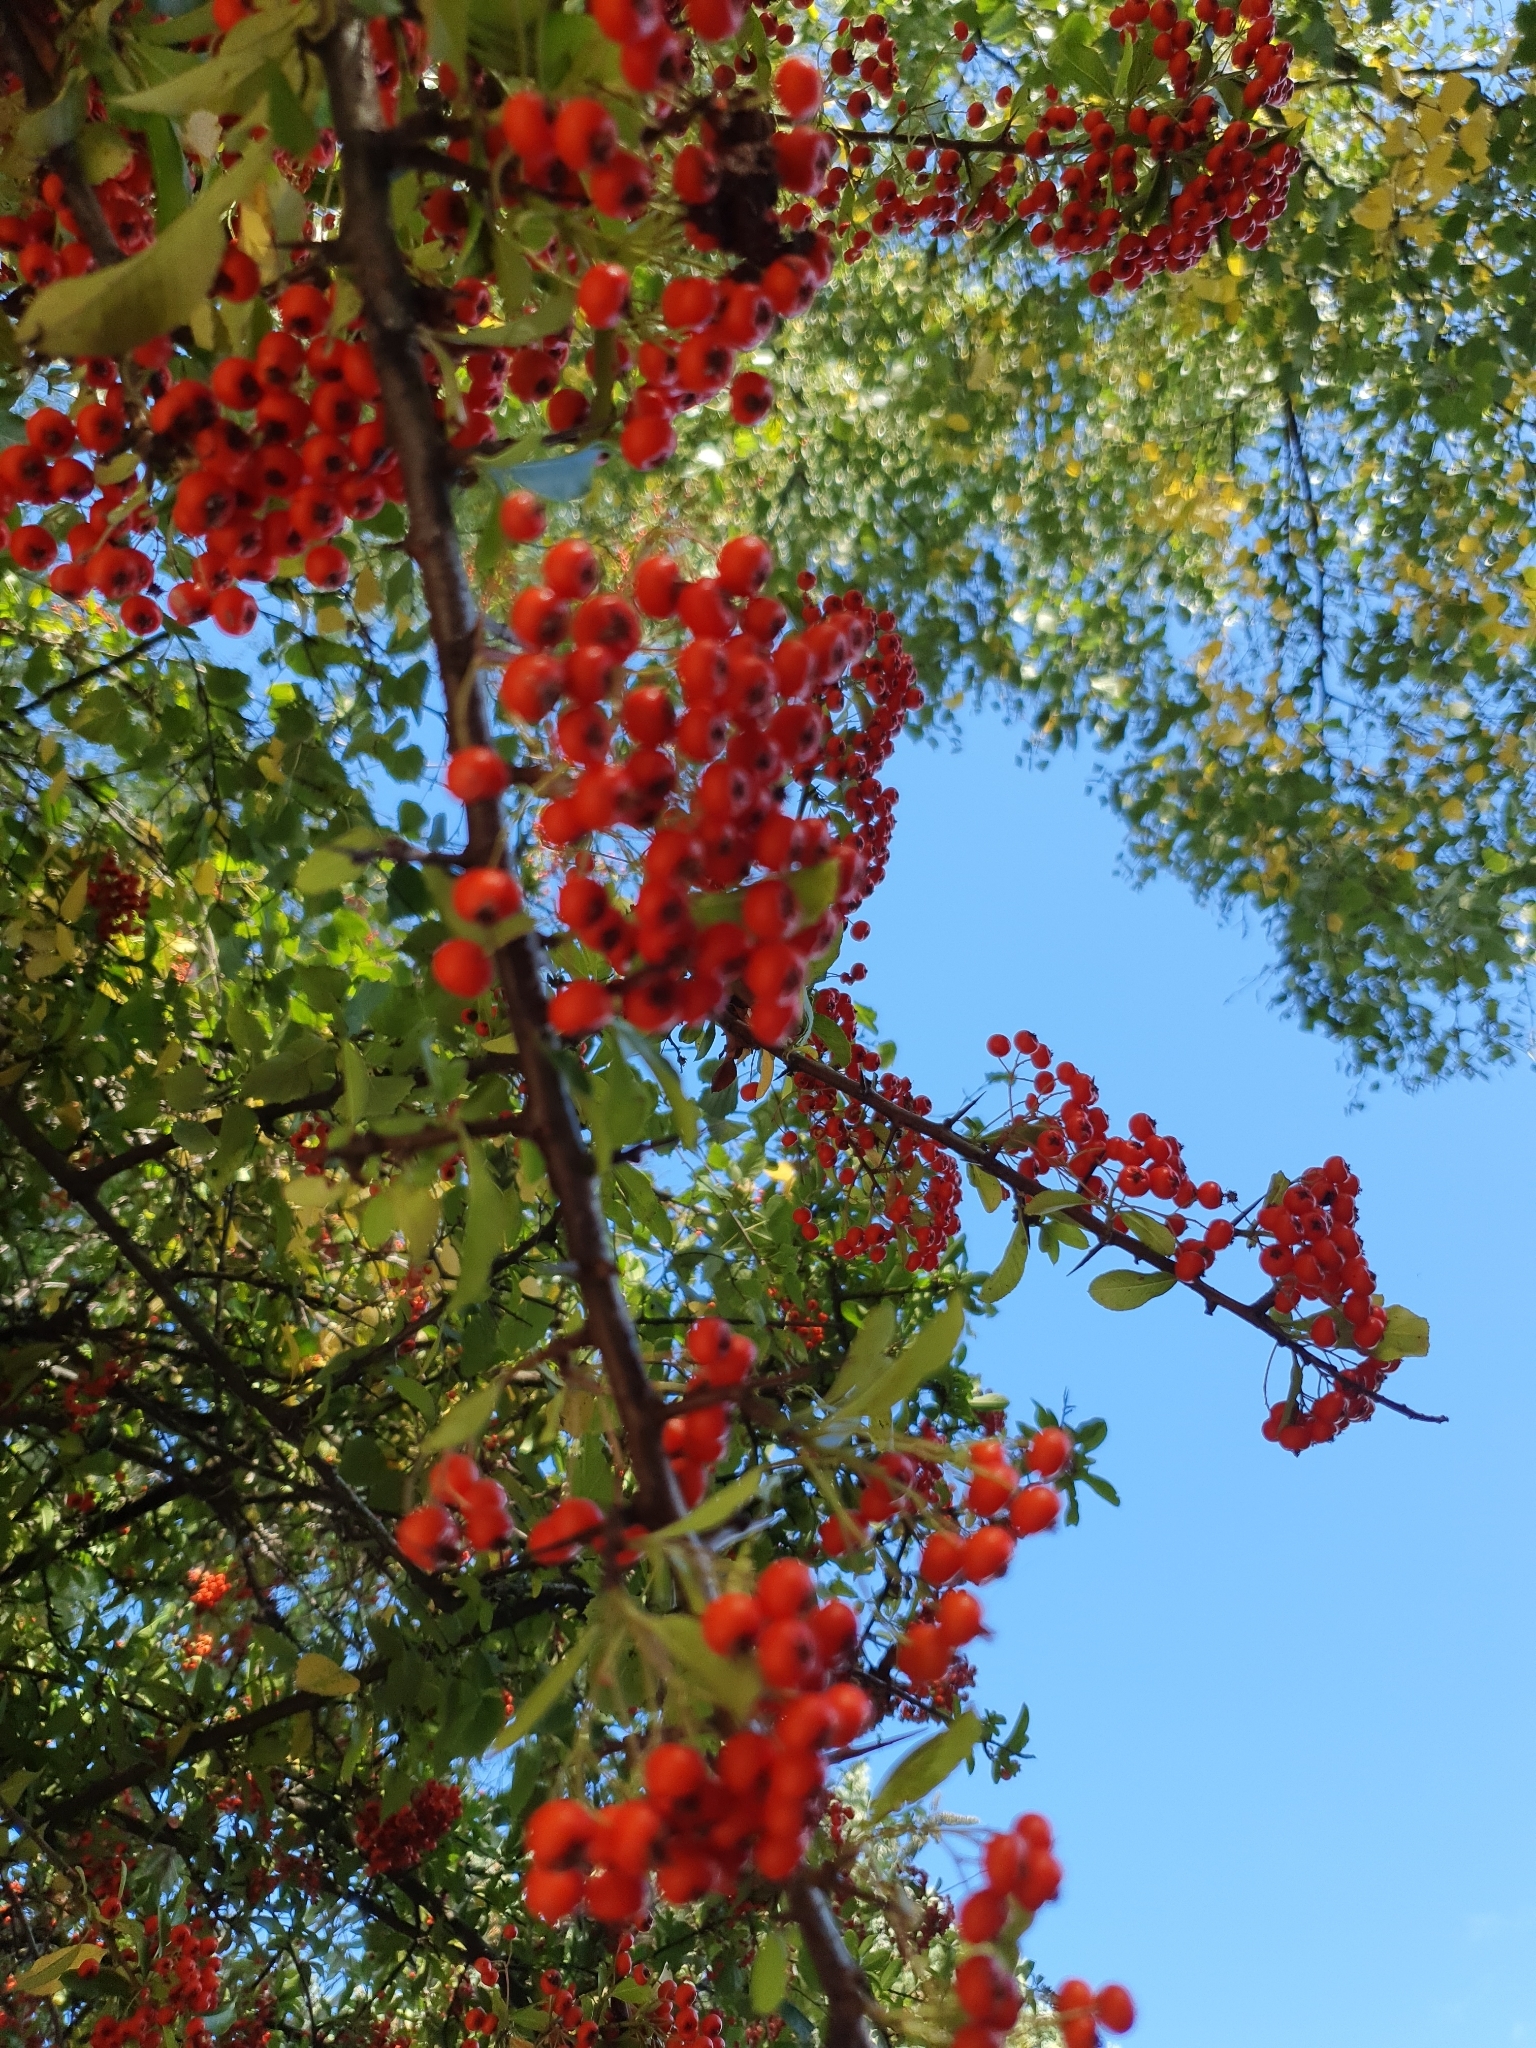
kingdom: Plantae
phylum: Tracheophyta
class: Magnoliopsida
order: Rosales
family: Rosaceae
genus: Pyracantha
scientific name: Pyracantha coccinea
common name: Firethorn
